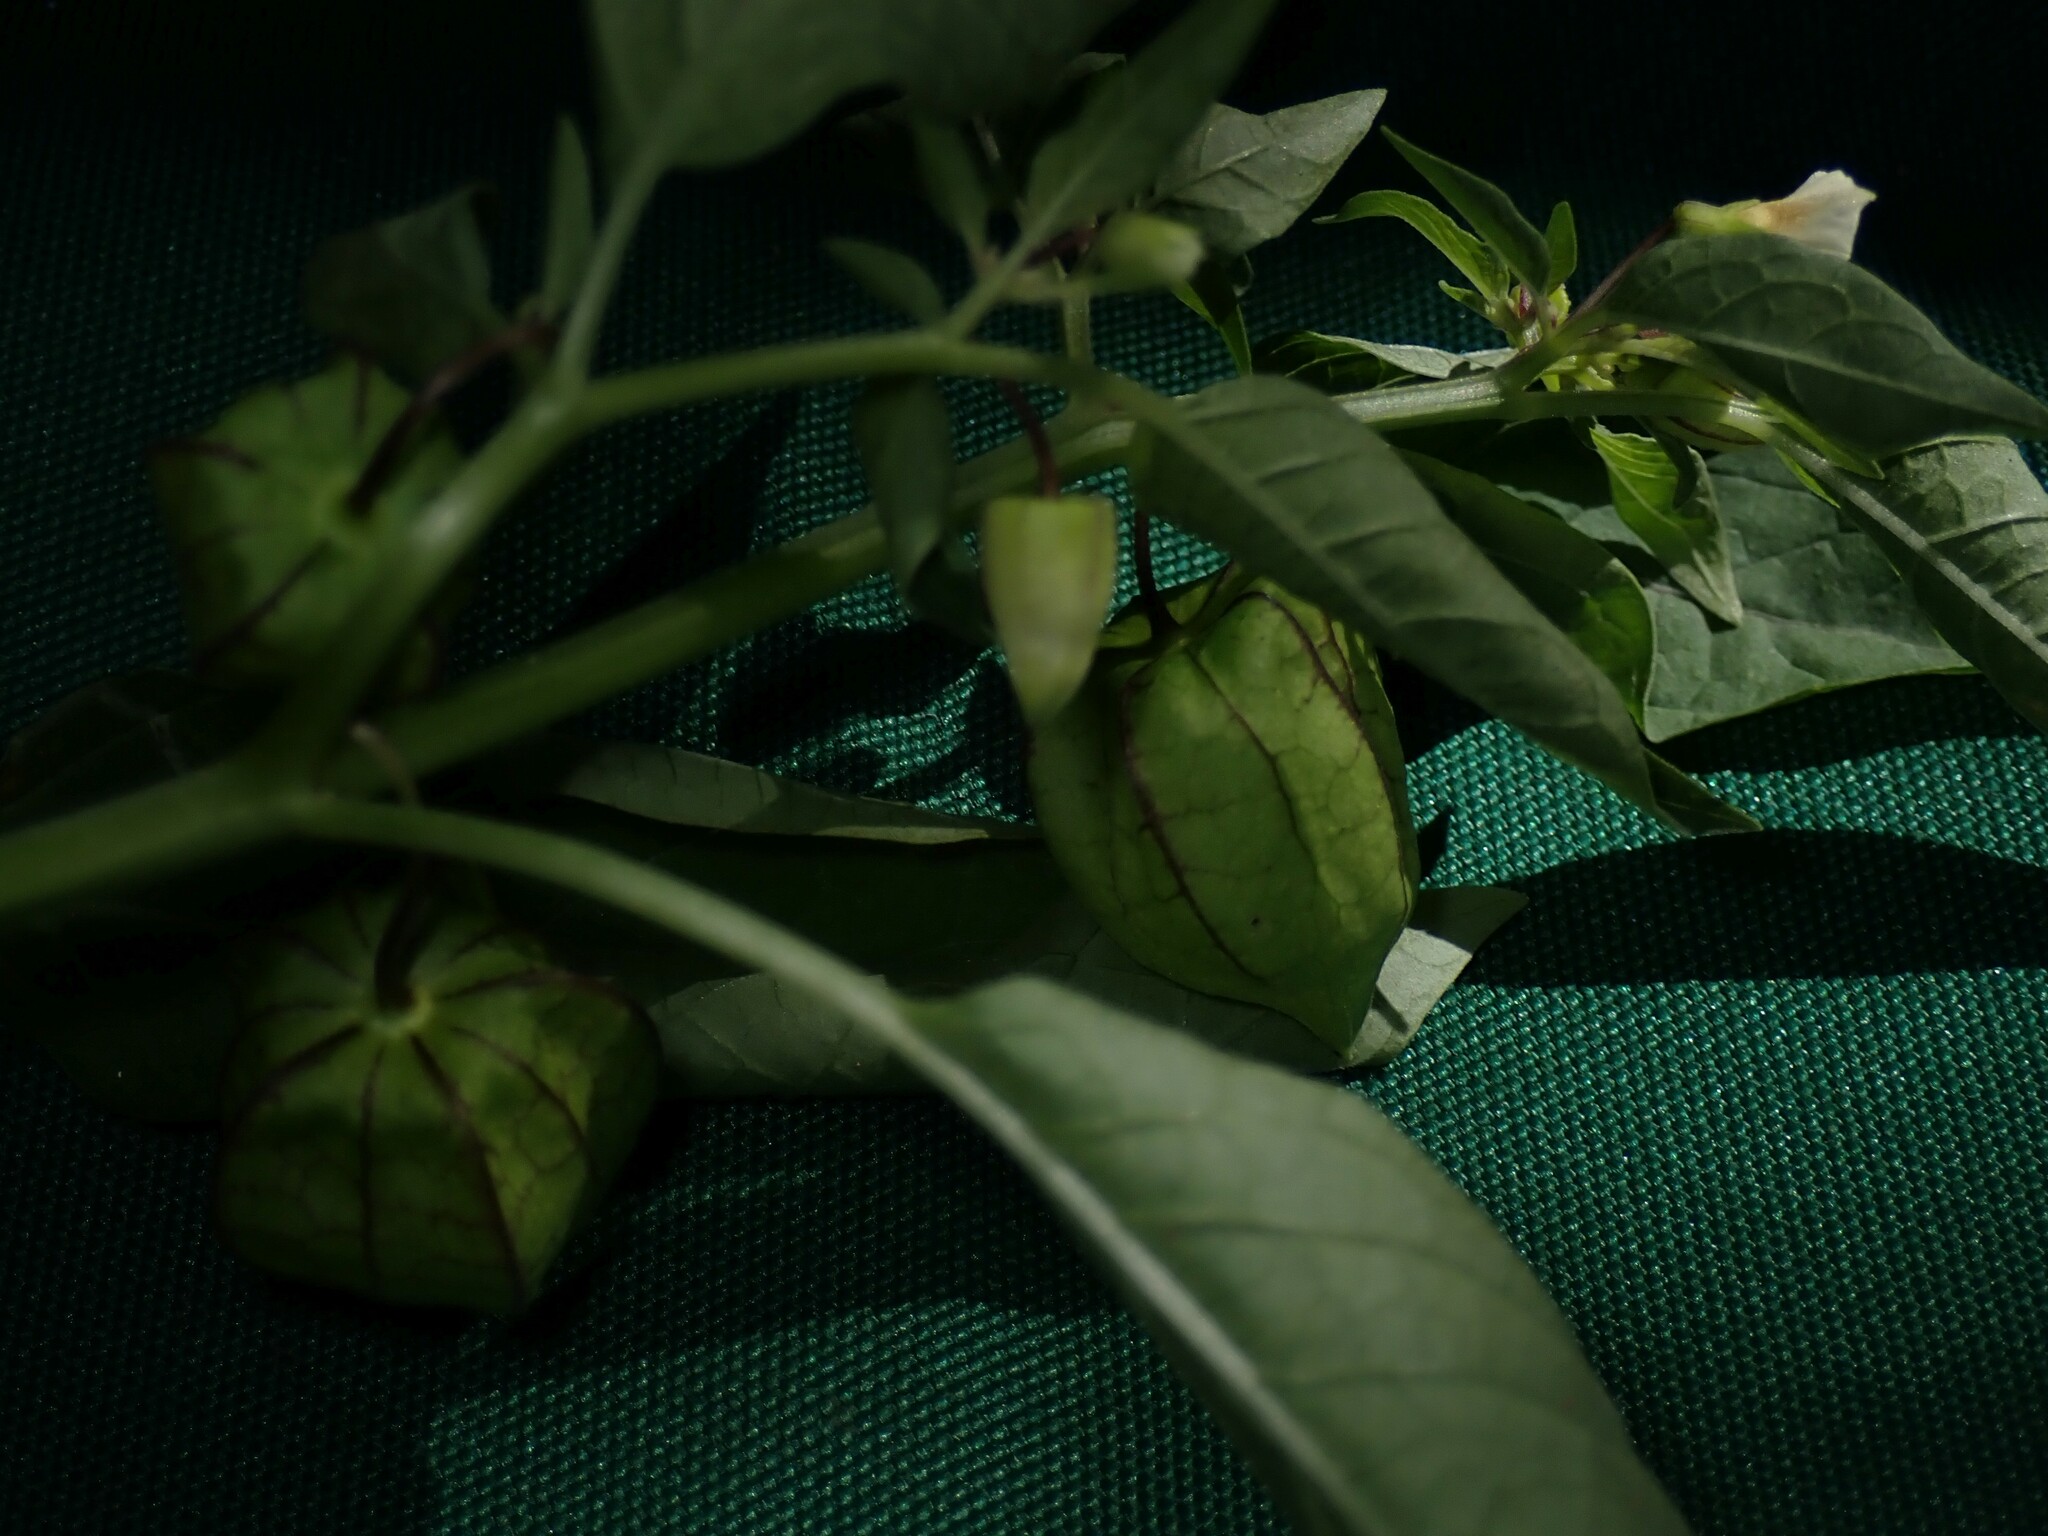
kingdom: Plantae
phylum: Tracheophyta
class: Magnoliopsida
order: Solanales
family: Solanaceae
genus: Physalis
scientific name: Physalis angulata
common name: Angular winter-cherry
